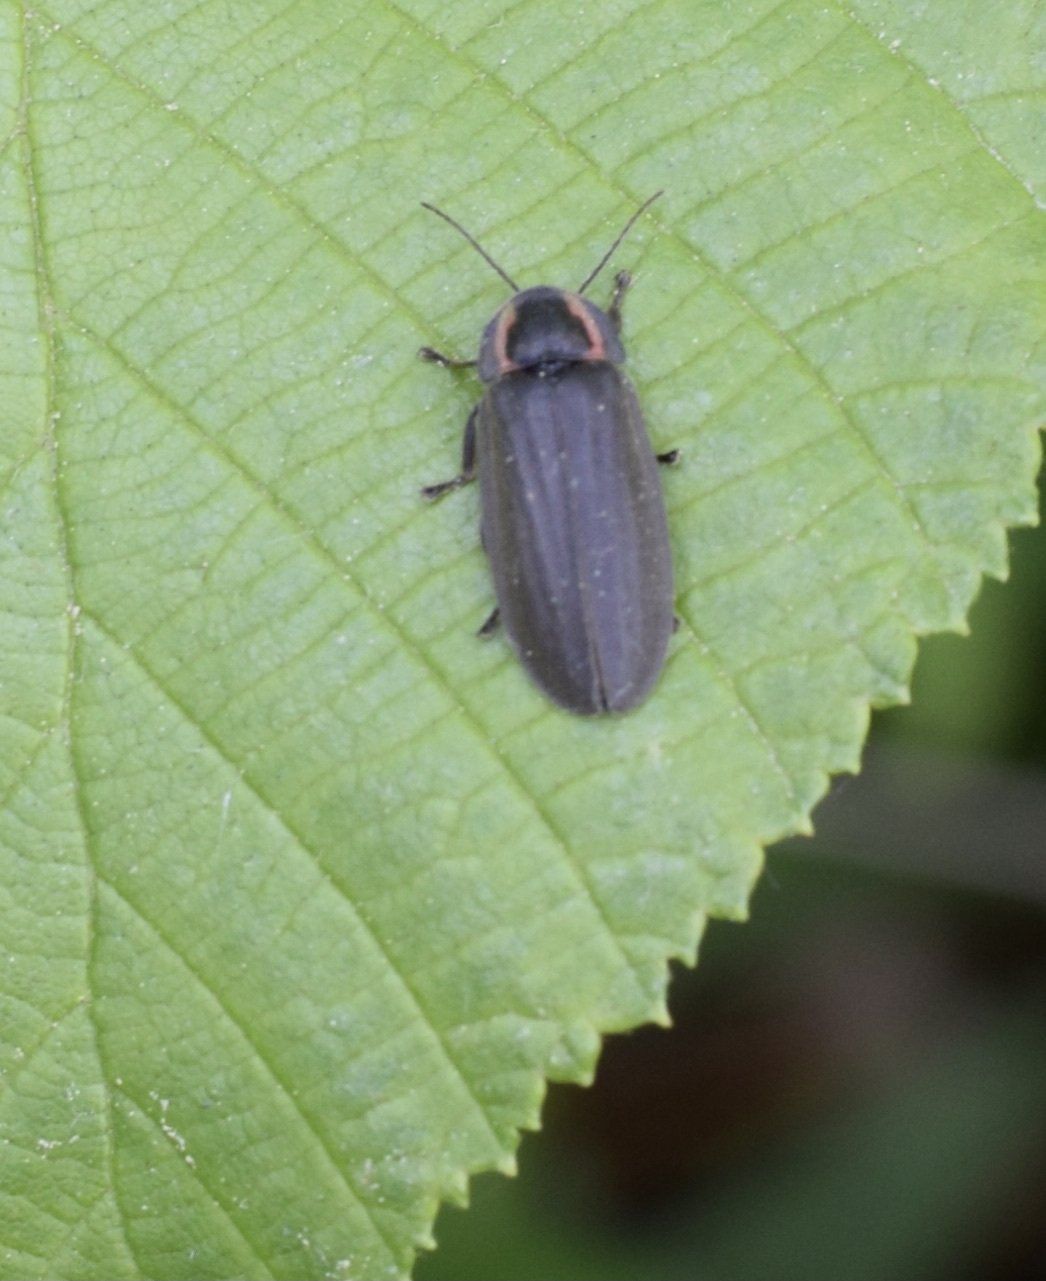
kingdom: Animalia
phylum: Arthropoda
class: Insecta
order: Coleoptera
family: Lampyridae
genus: Photinus
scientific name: Photinus corrusca
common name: Winter firefly
